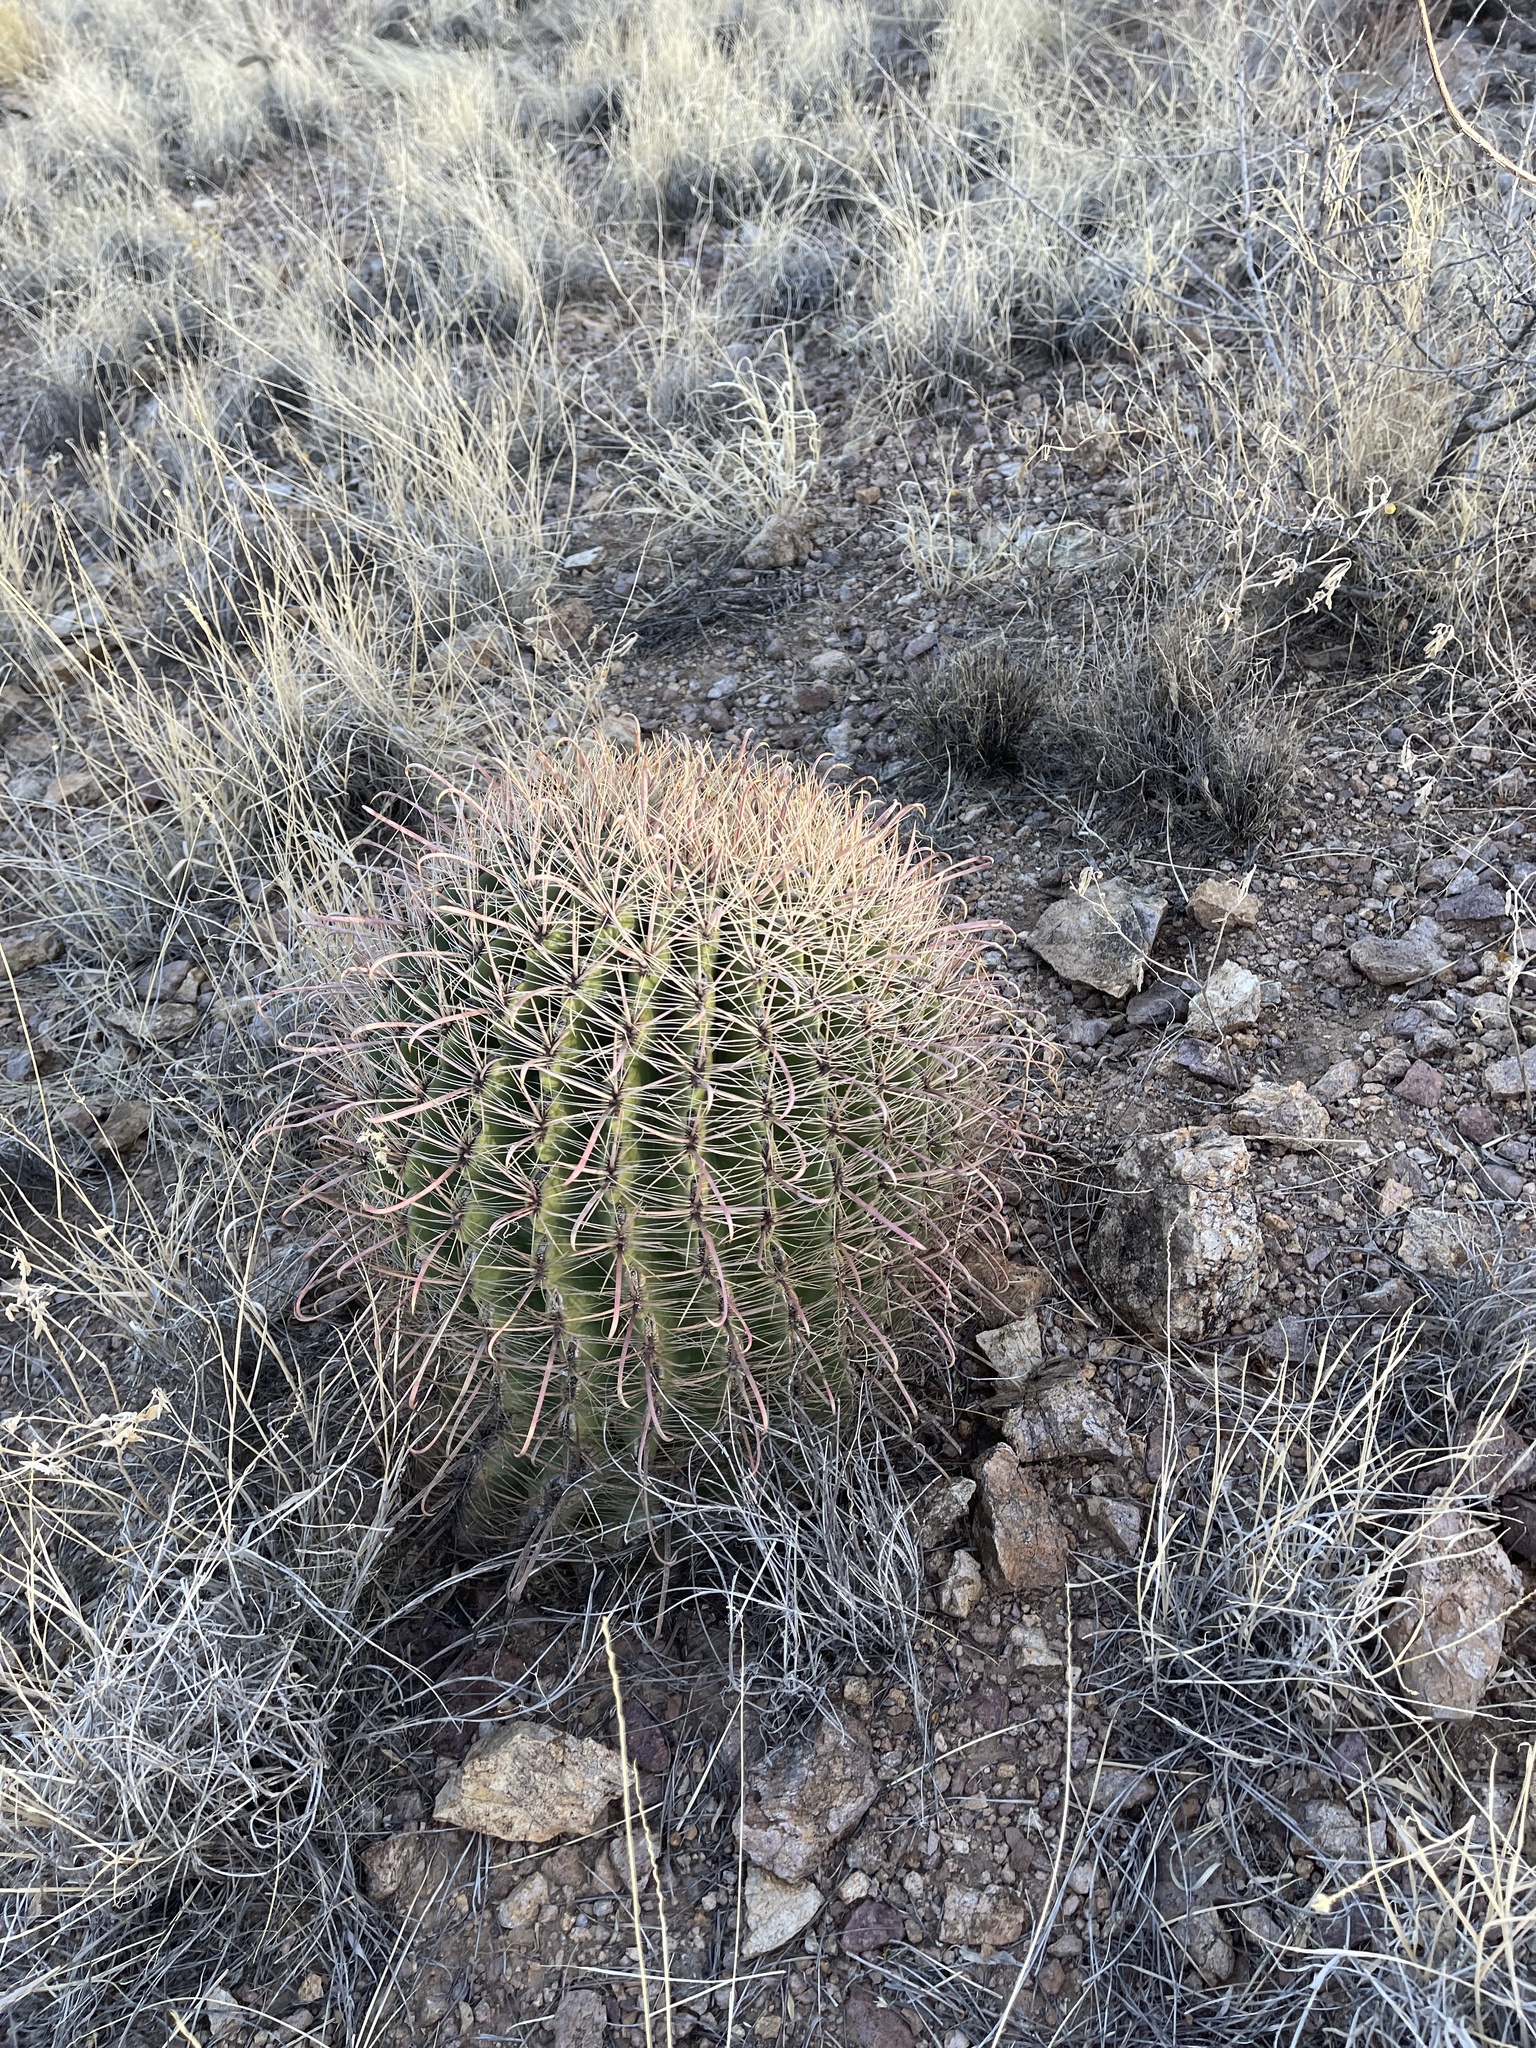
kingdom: Plantae
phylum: Tracheophyta
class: Magnoliopsida
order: Caryophyllales
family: Cactaceae
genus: Ferocactus
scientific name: Ferocactus wislizeni
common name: Candy barrel cactus
